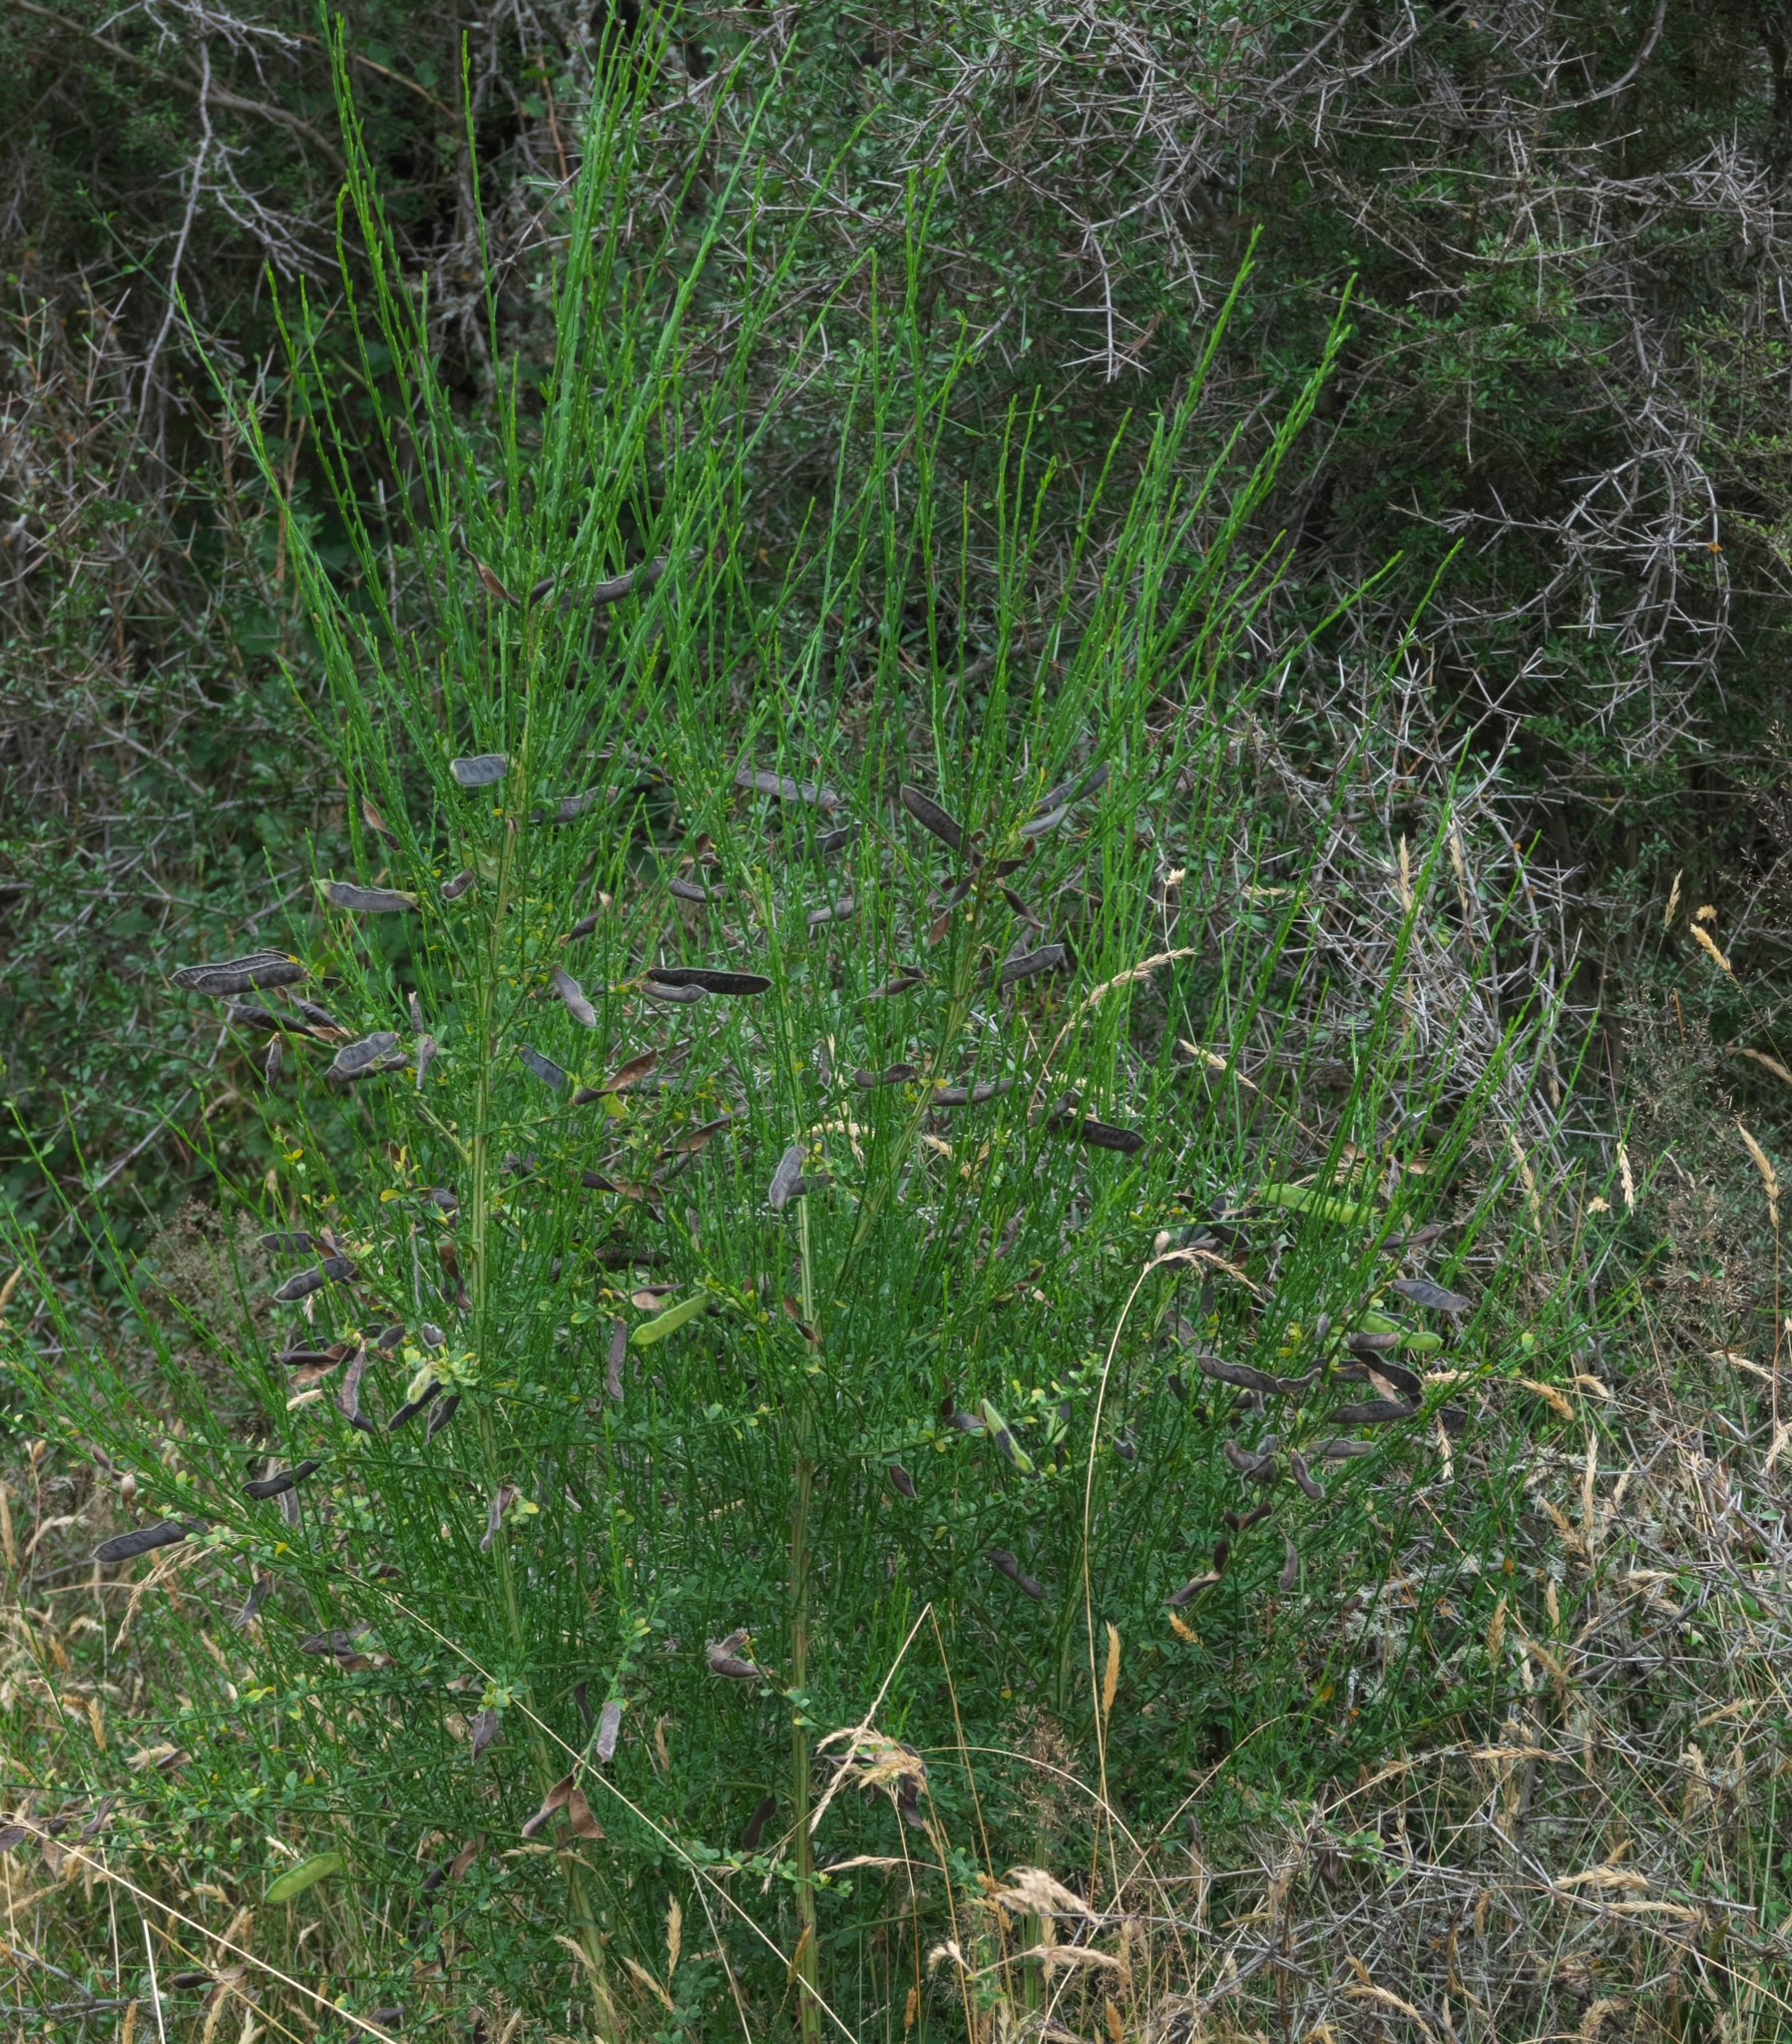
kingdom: Plantae
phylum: Tracheophyta
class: Magnoliopsida
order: Fabales
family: Fabaceae
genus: Cytisus
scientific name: Cytisus scoparius
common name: Scotch broom
